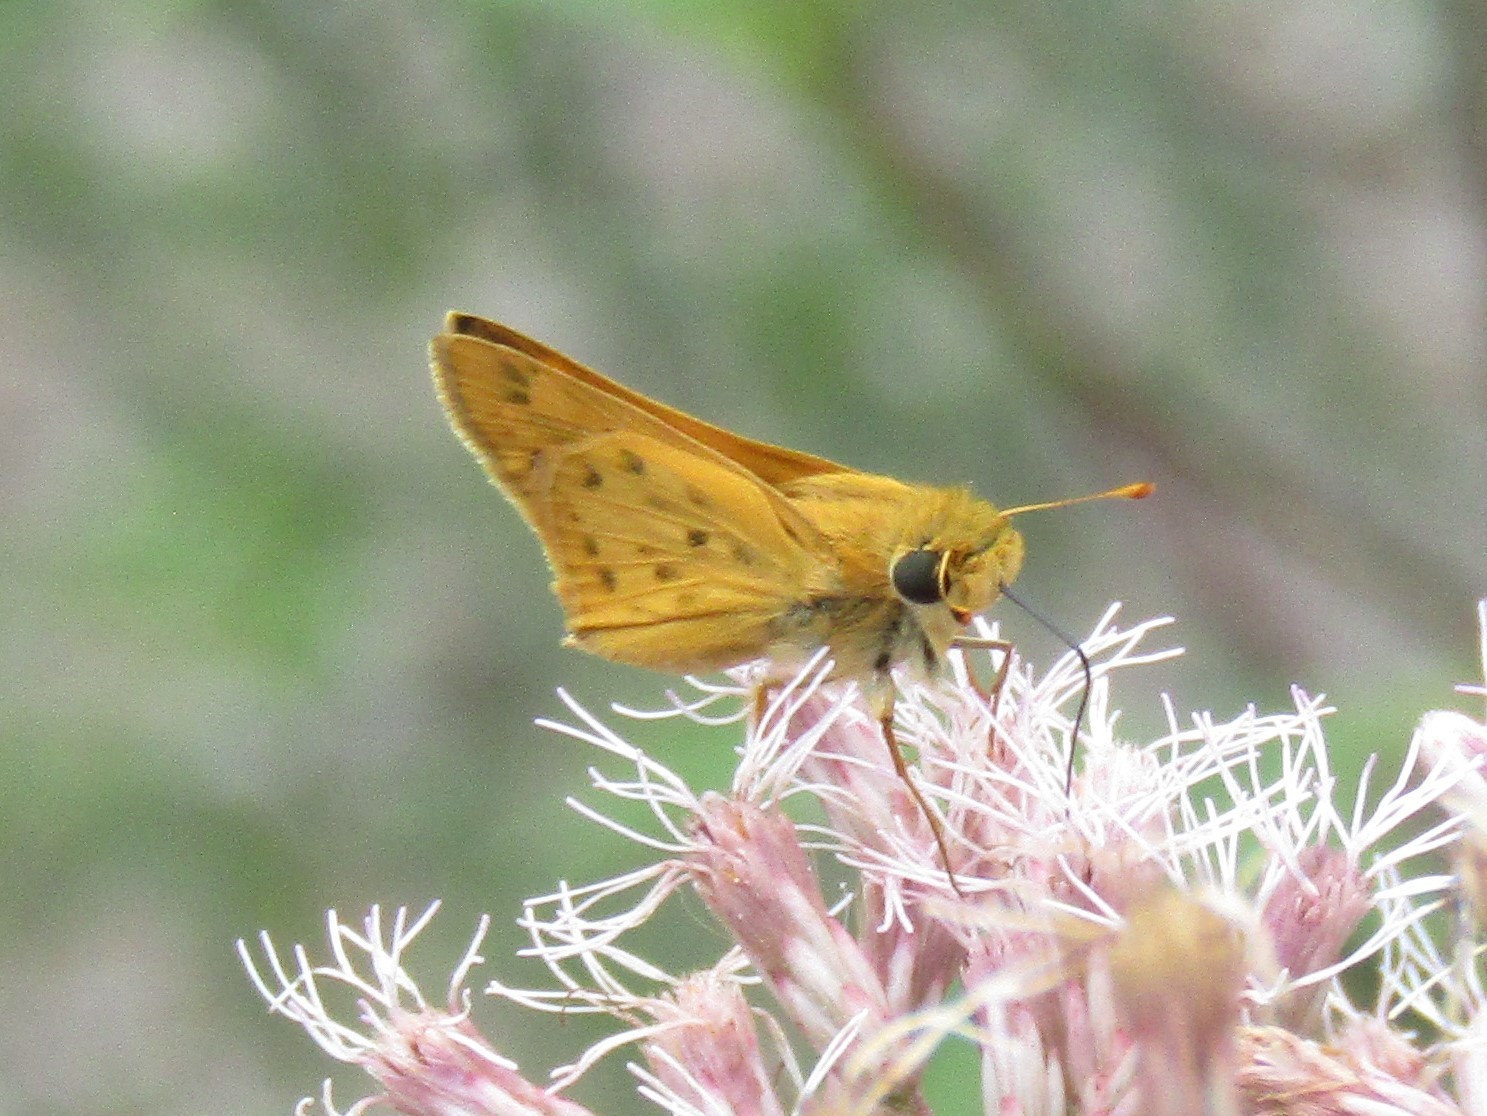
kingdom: Animalia
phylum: Arthropoda
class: Insecta
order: Lepidoptera
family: Hesperiidae
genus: Hylephila
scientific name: Hylephila phyleus
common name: Fiery skipper
